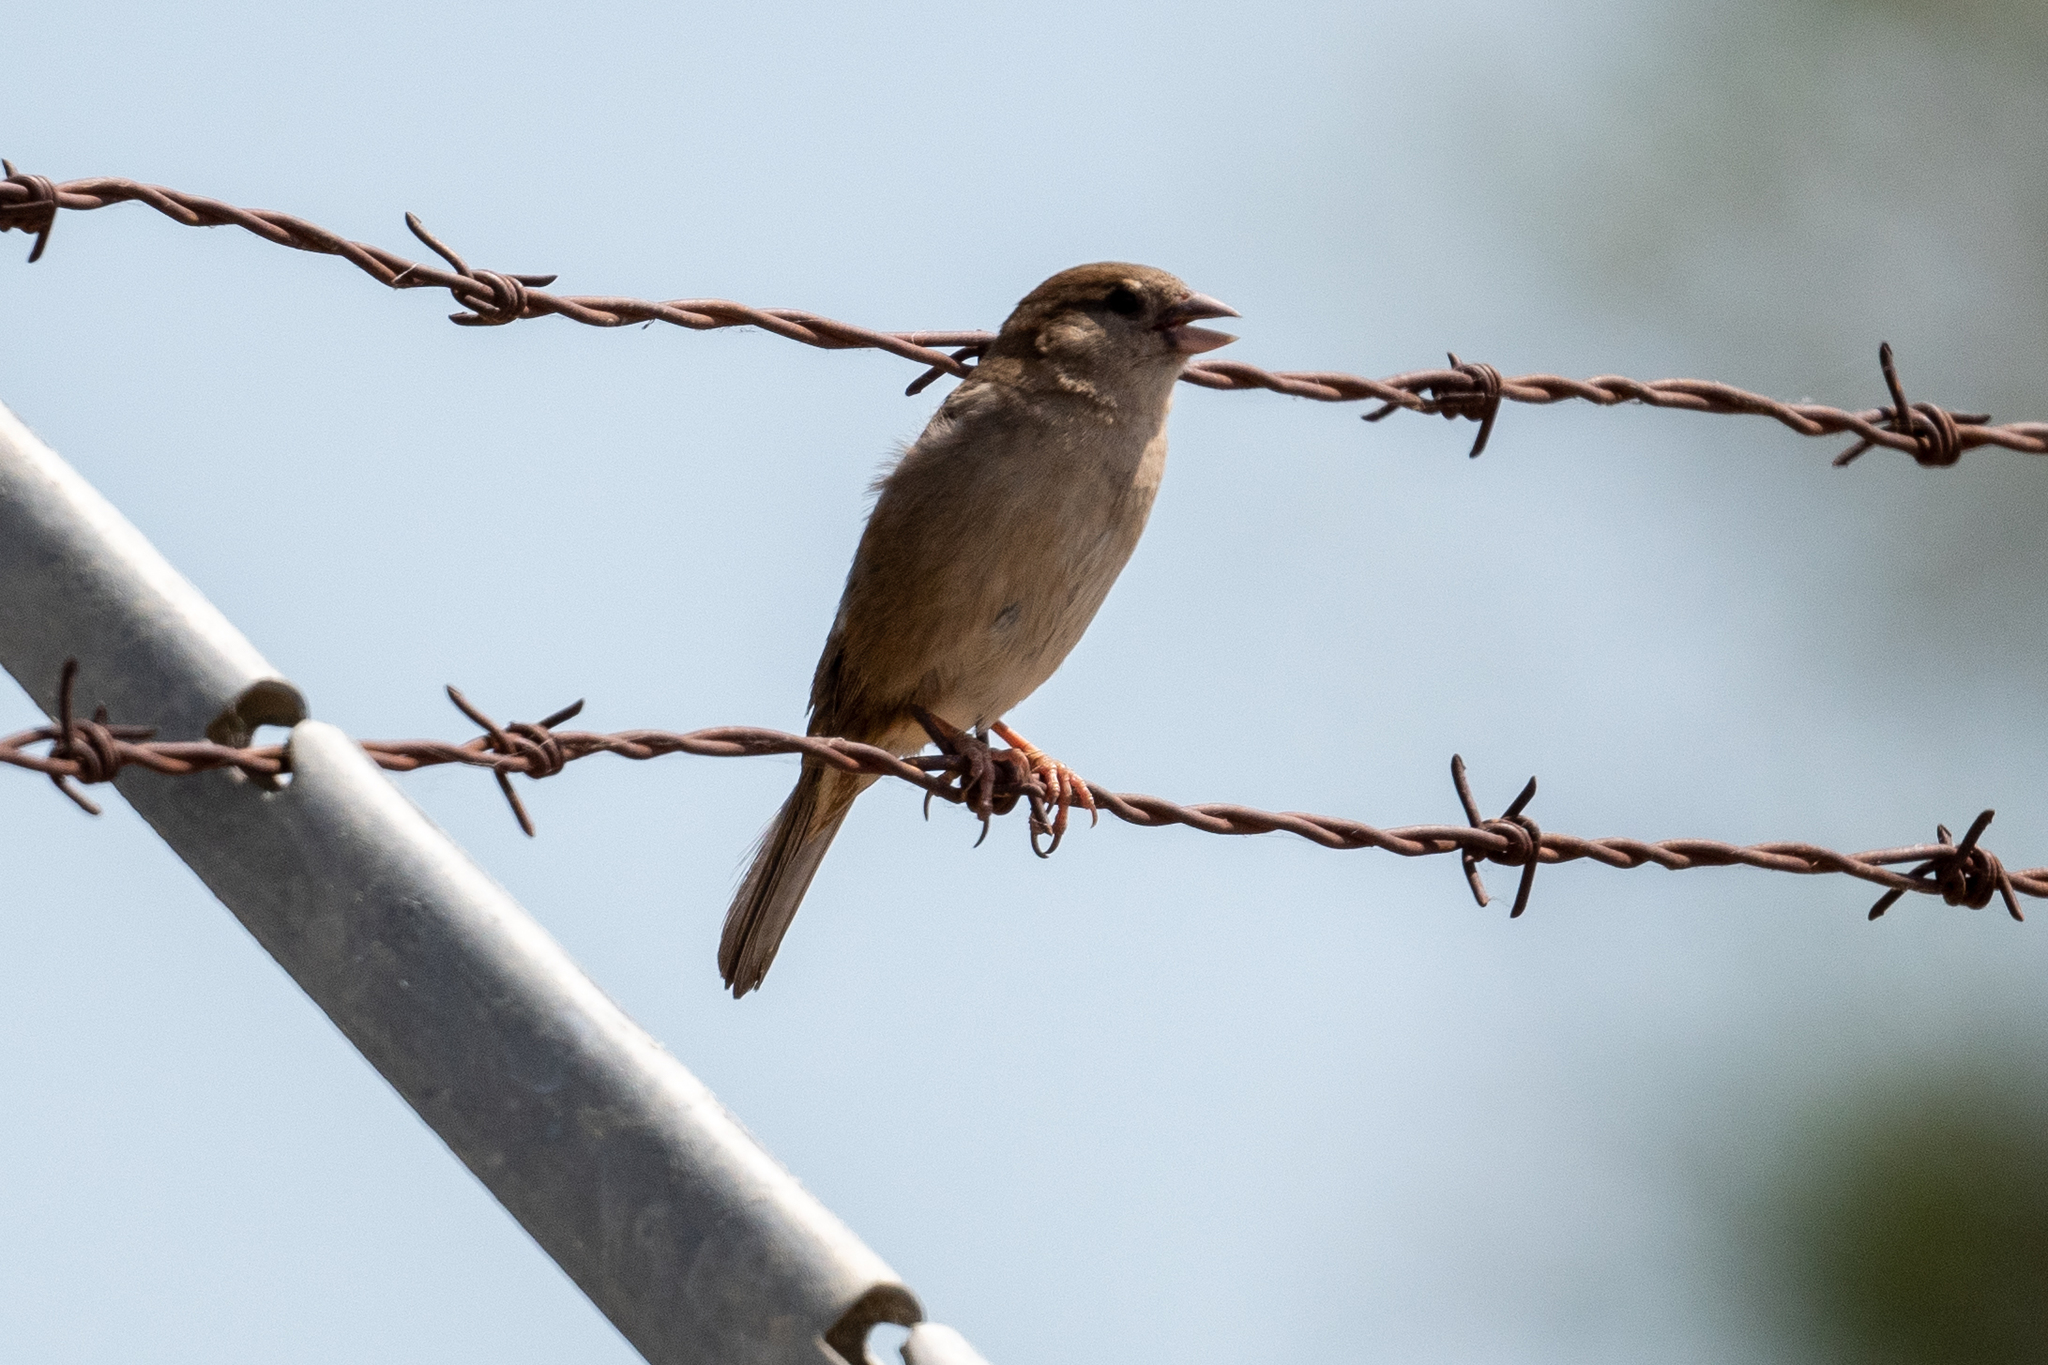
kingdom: Animalia
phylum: Chordata
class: Aves
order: Passeriformes
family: Passeridae
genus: Passer
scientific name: Passer domesticus
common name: House sparrow
